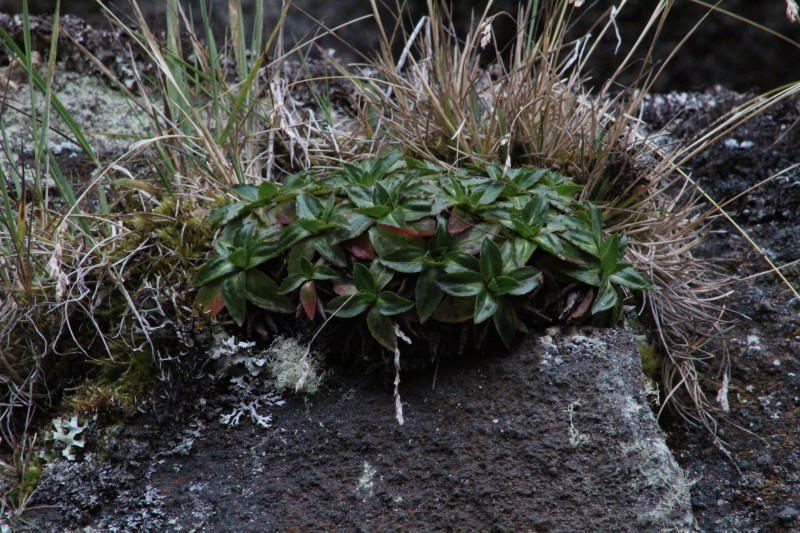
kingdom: Plantae
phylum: Tracheophyta
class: Magnoliopsida
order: Asterales
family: Asteraceae
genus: Hypochaeris
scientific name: Hypochaeris sessiliflora
